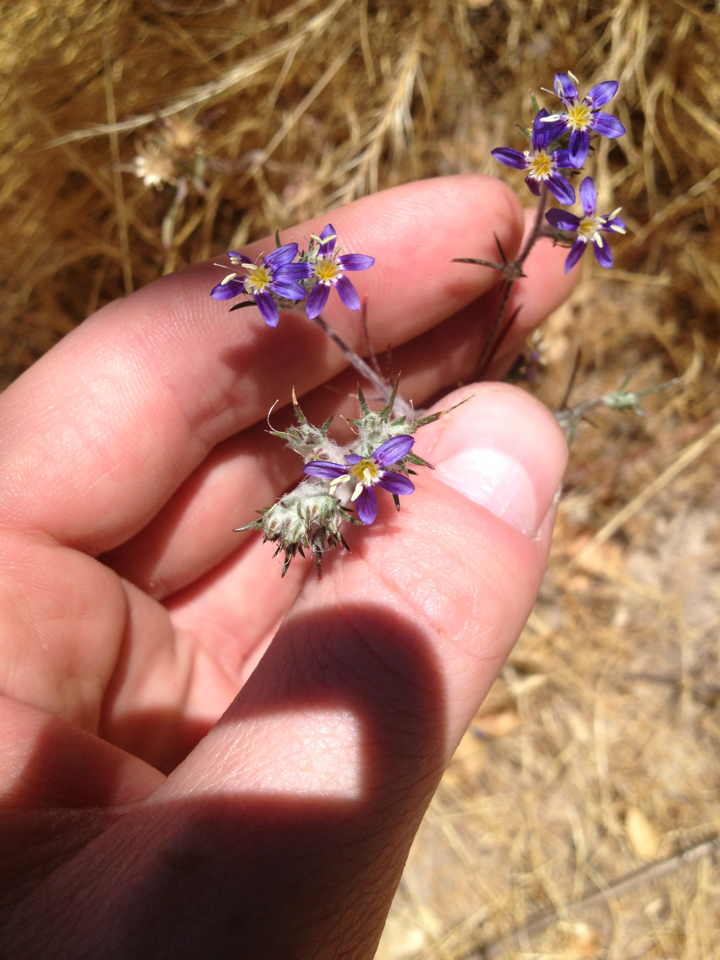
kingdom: Plantae
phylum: Tracheophyta
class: Magnoliopsida
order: Ericales
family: Polemoniaceae
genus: Eriastrum
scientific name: Eriastrum sapphirinum
